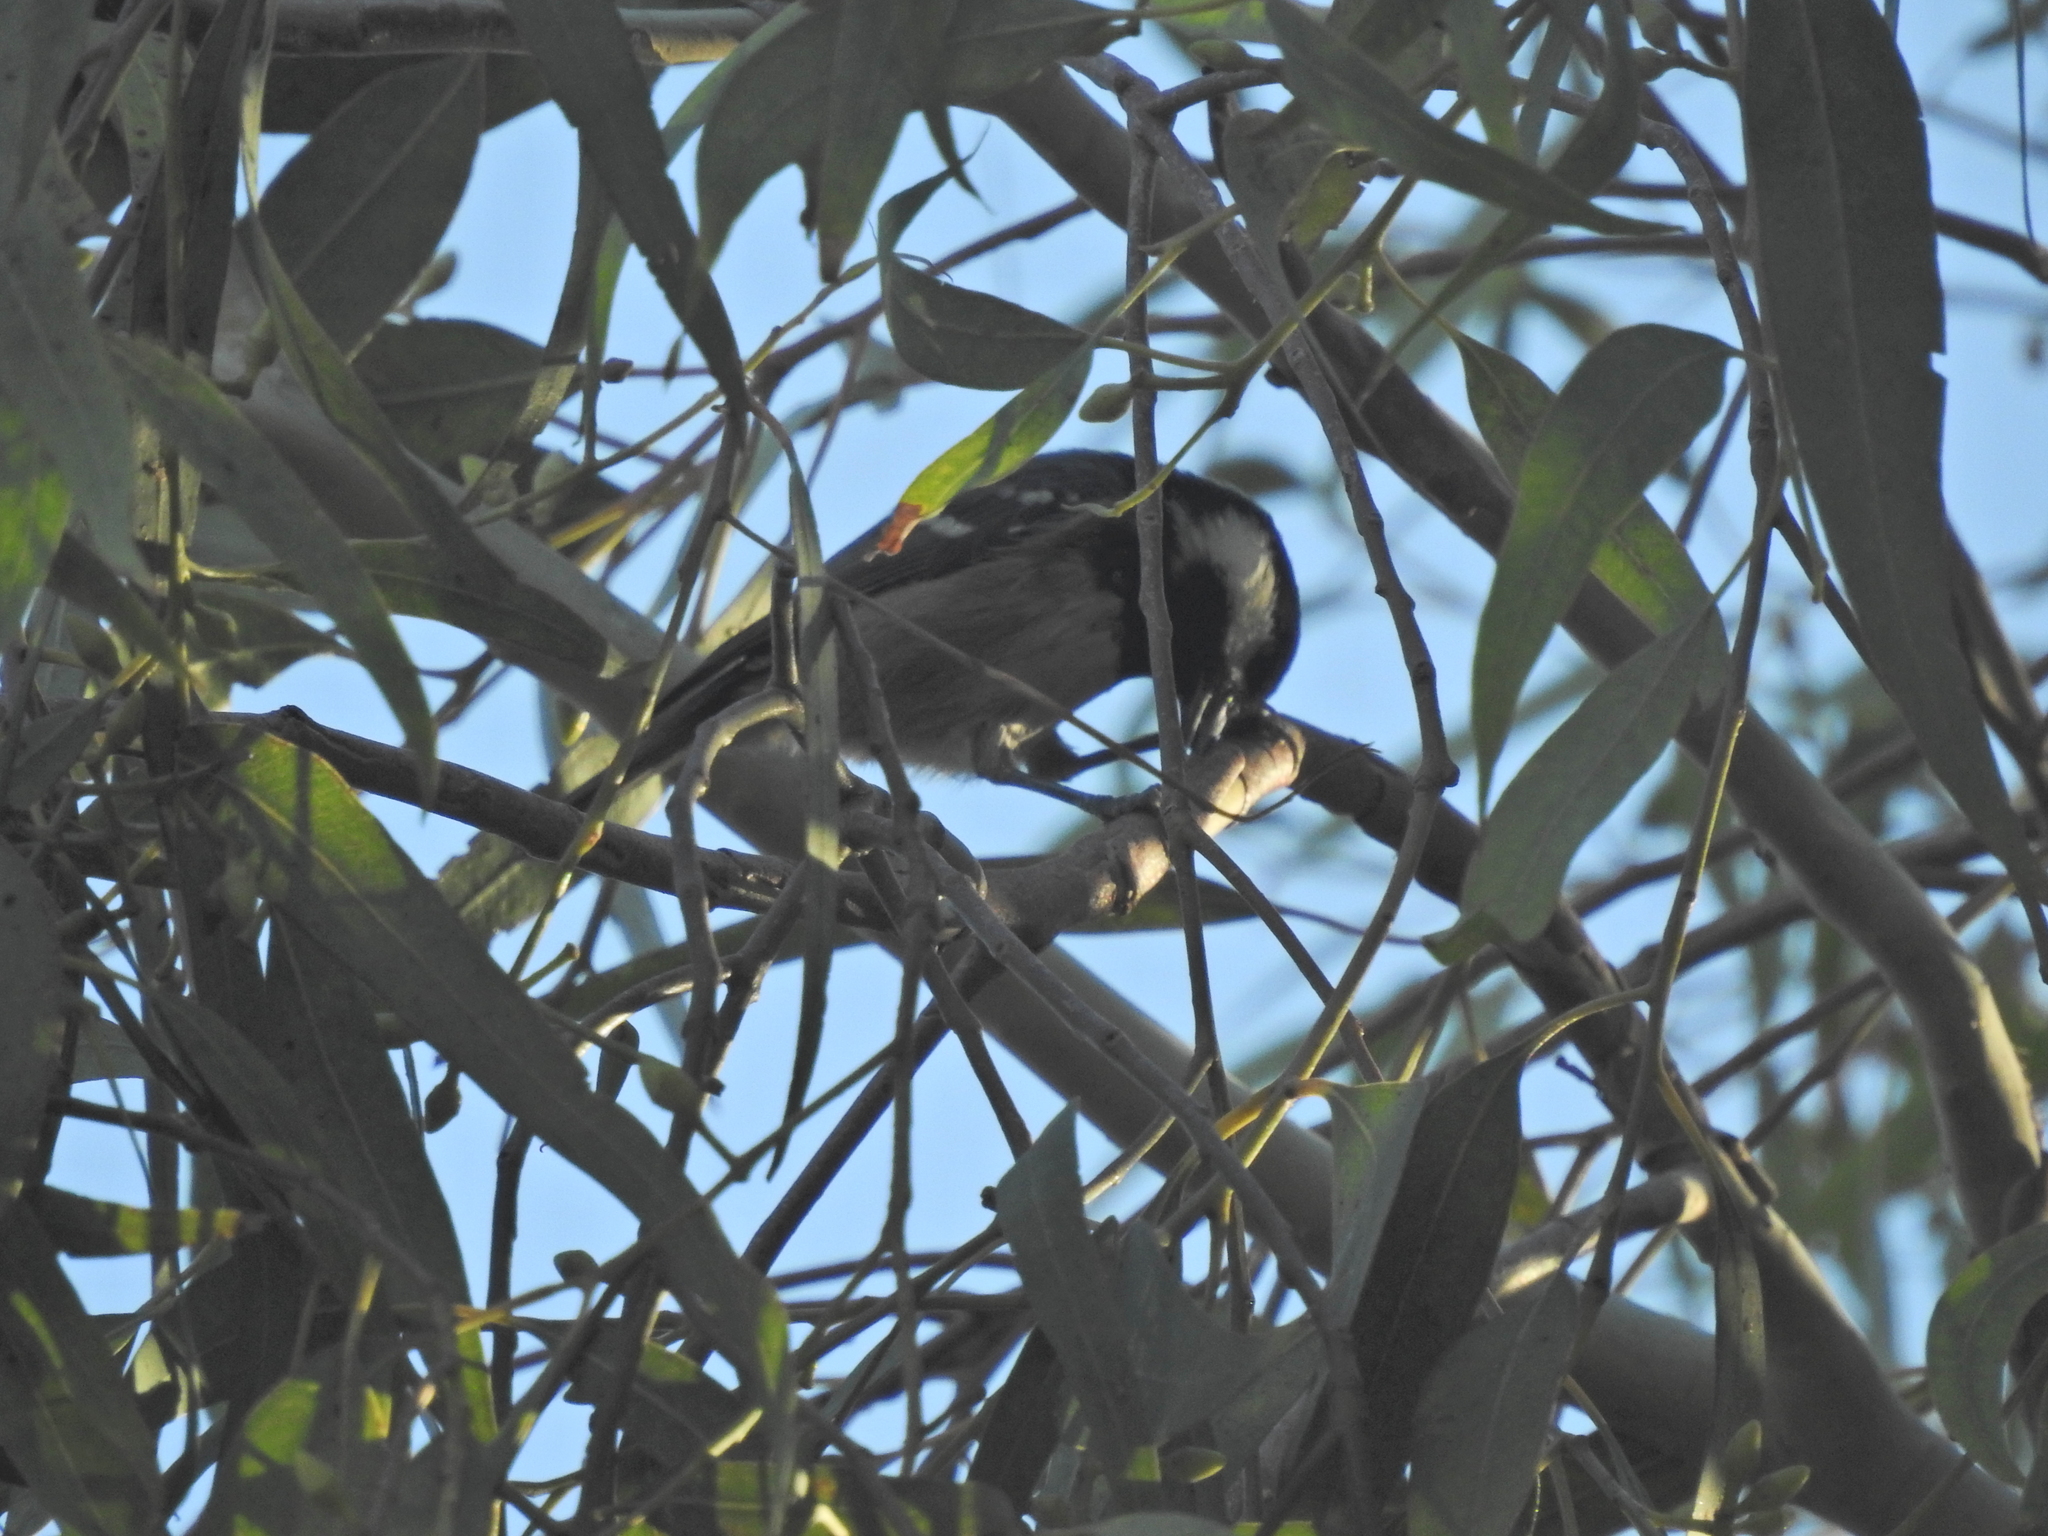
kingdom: Animalia
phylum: Chordata
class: Aves
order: Passeriformes
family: Paridae
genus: Periparus
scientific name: Periparus ater
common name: Coal tit
